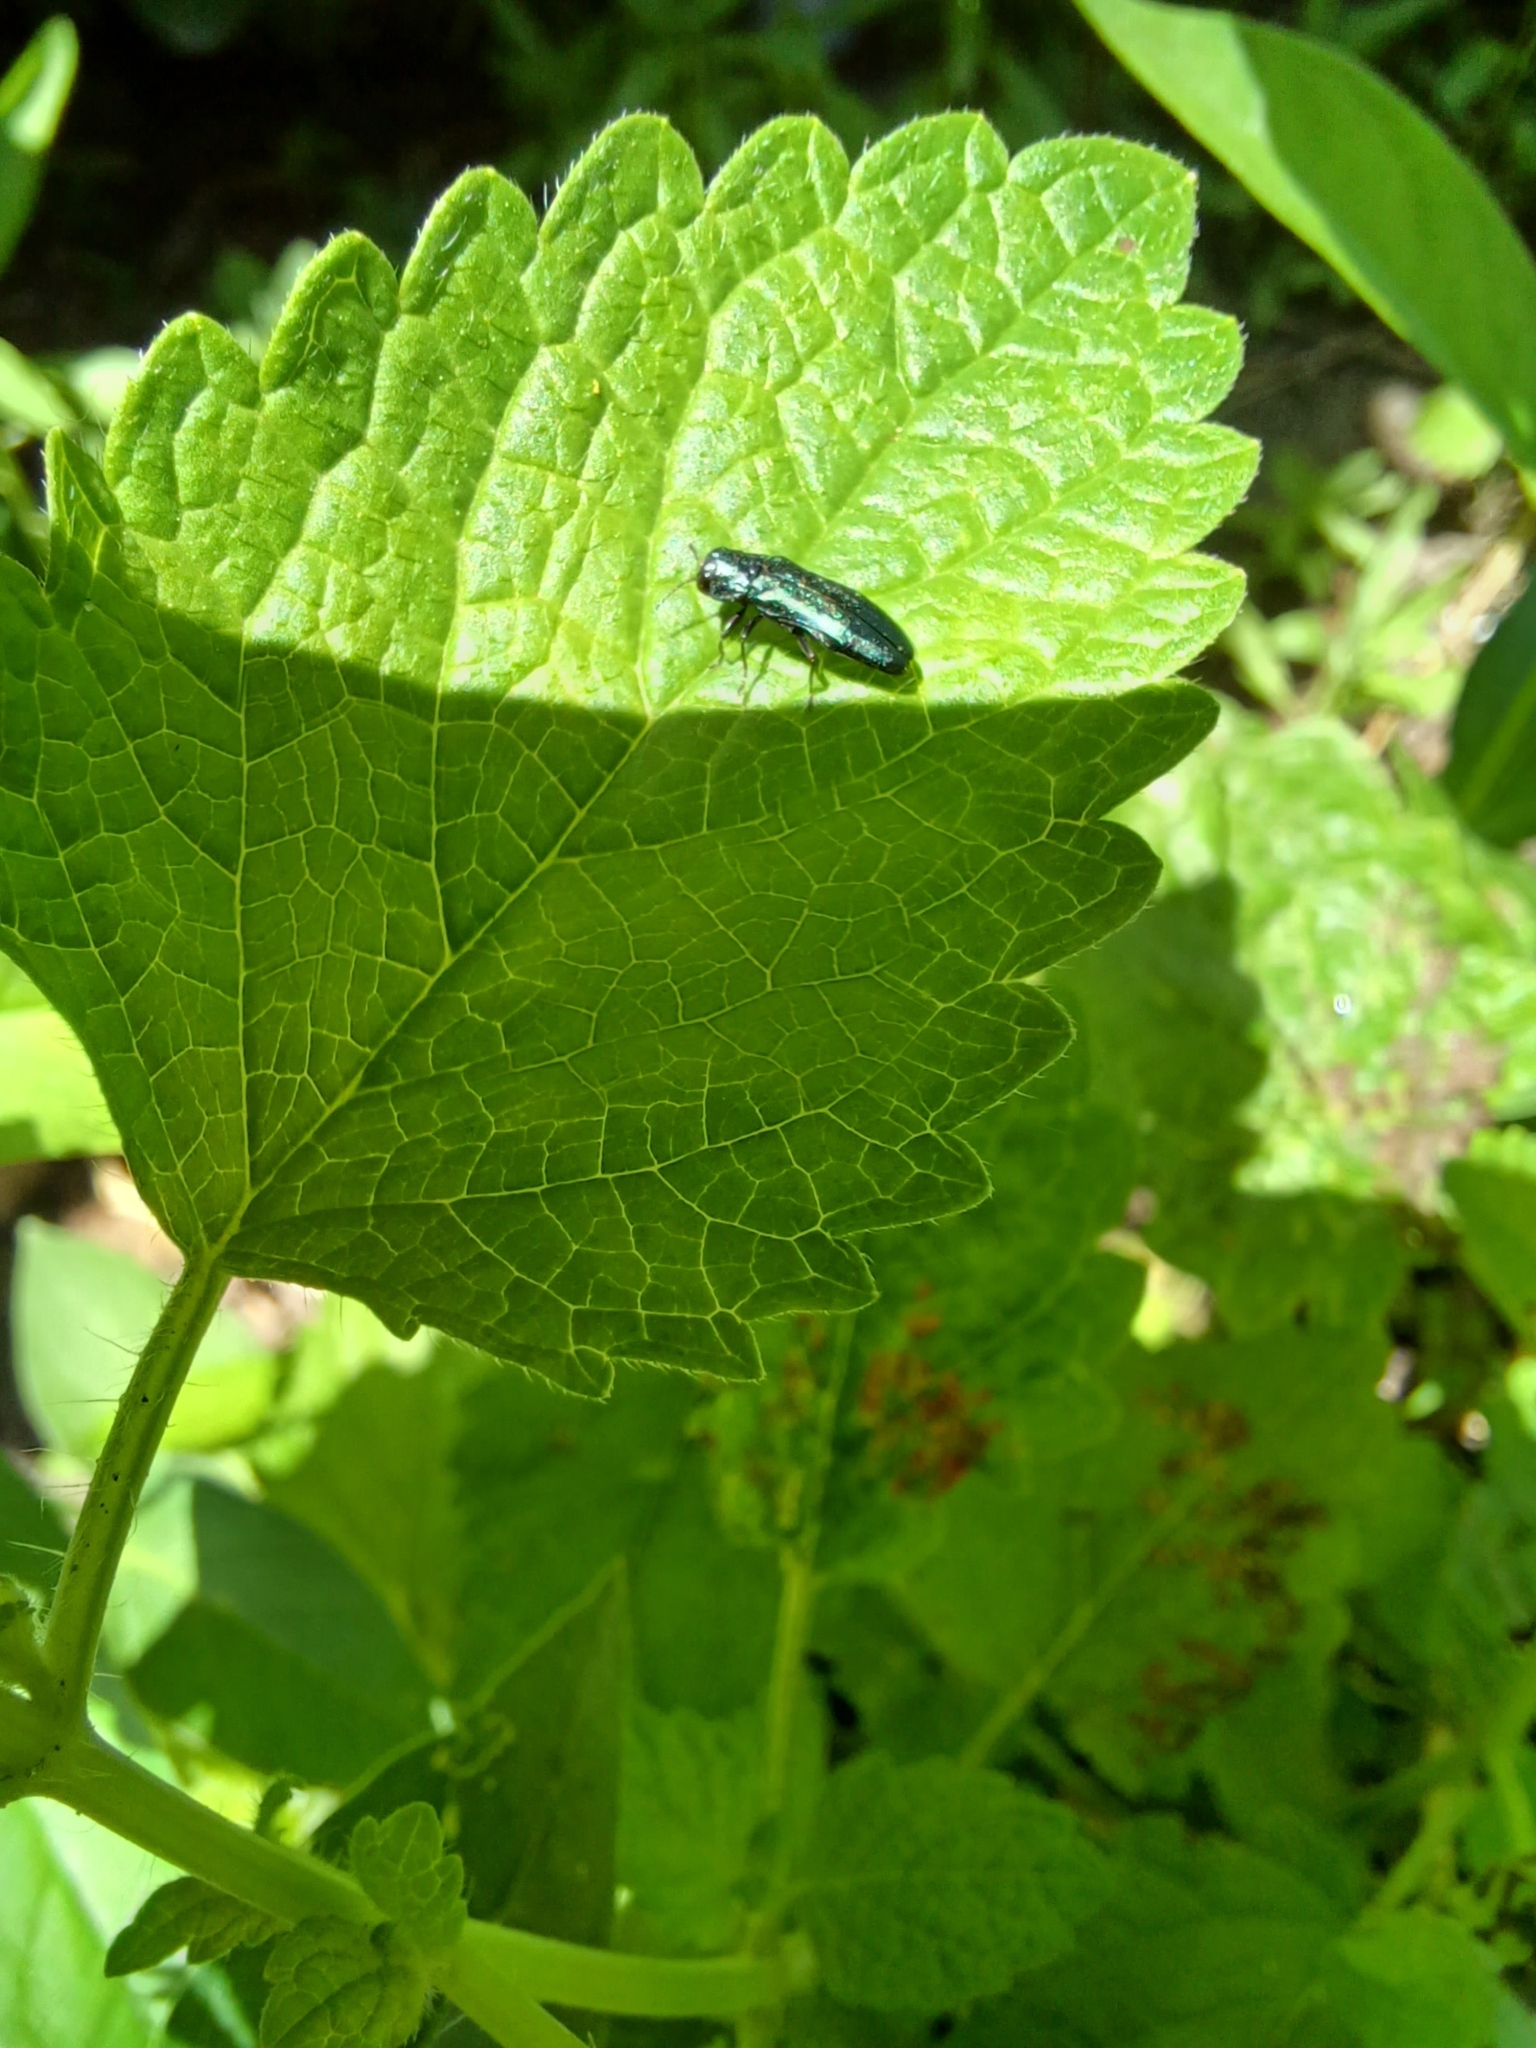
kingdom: Animalia
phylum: Arthropoda
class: Insecta
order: Coleoptera
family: Buprestidae
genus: Agrilus
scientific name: Agrilus cyanescens
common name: Bluish borer beetle
